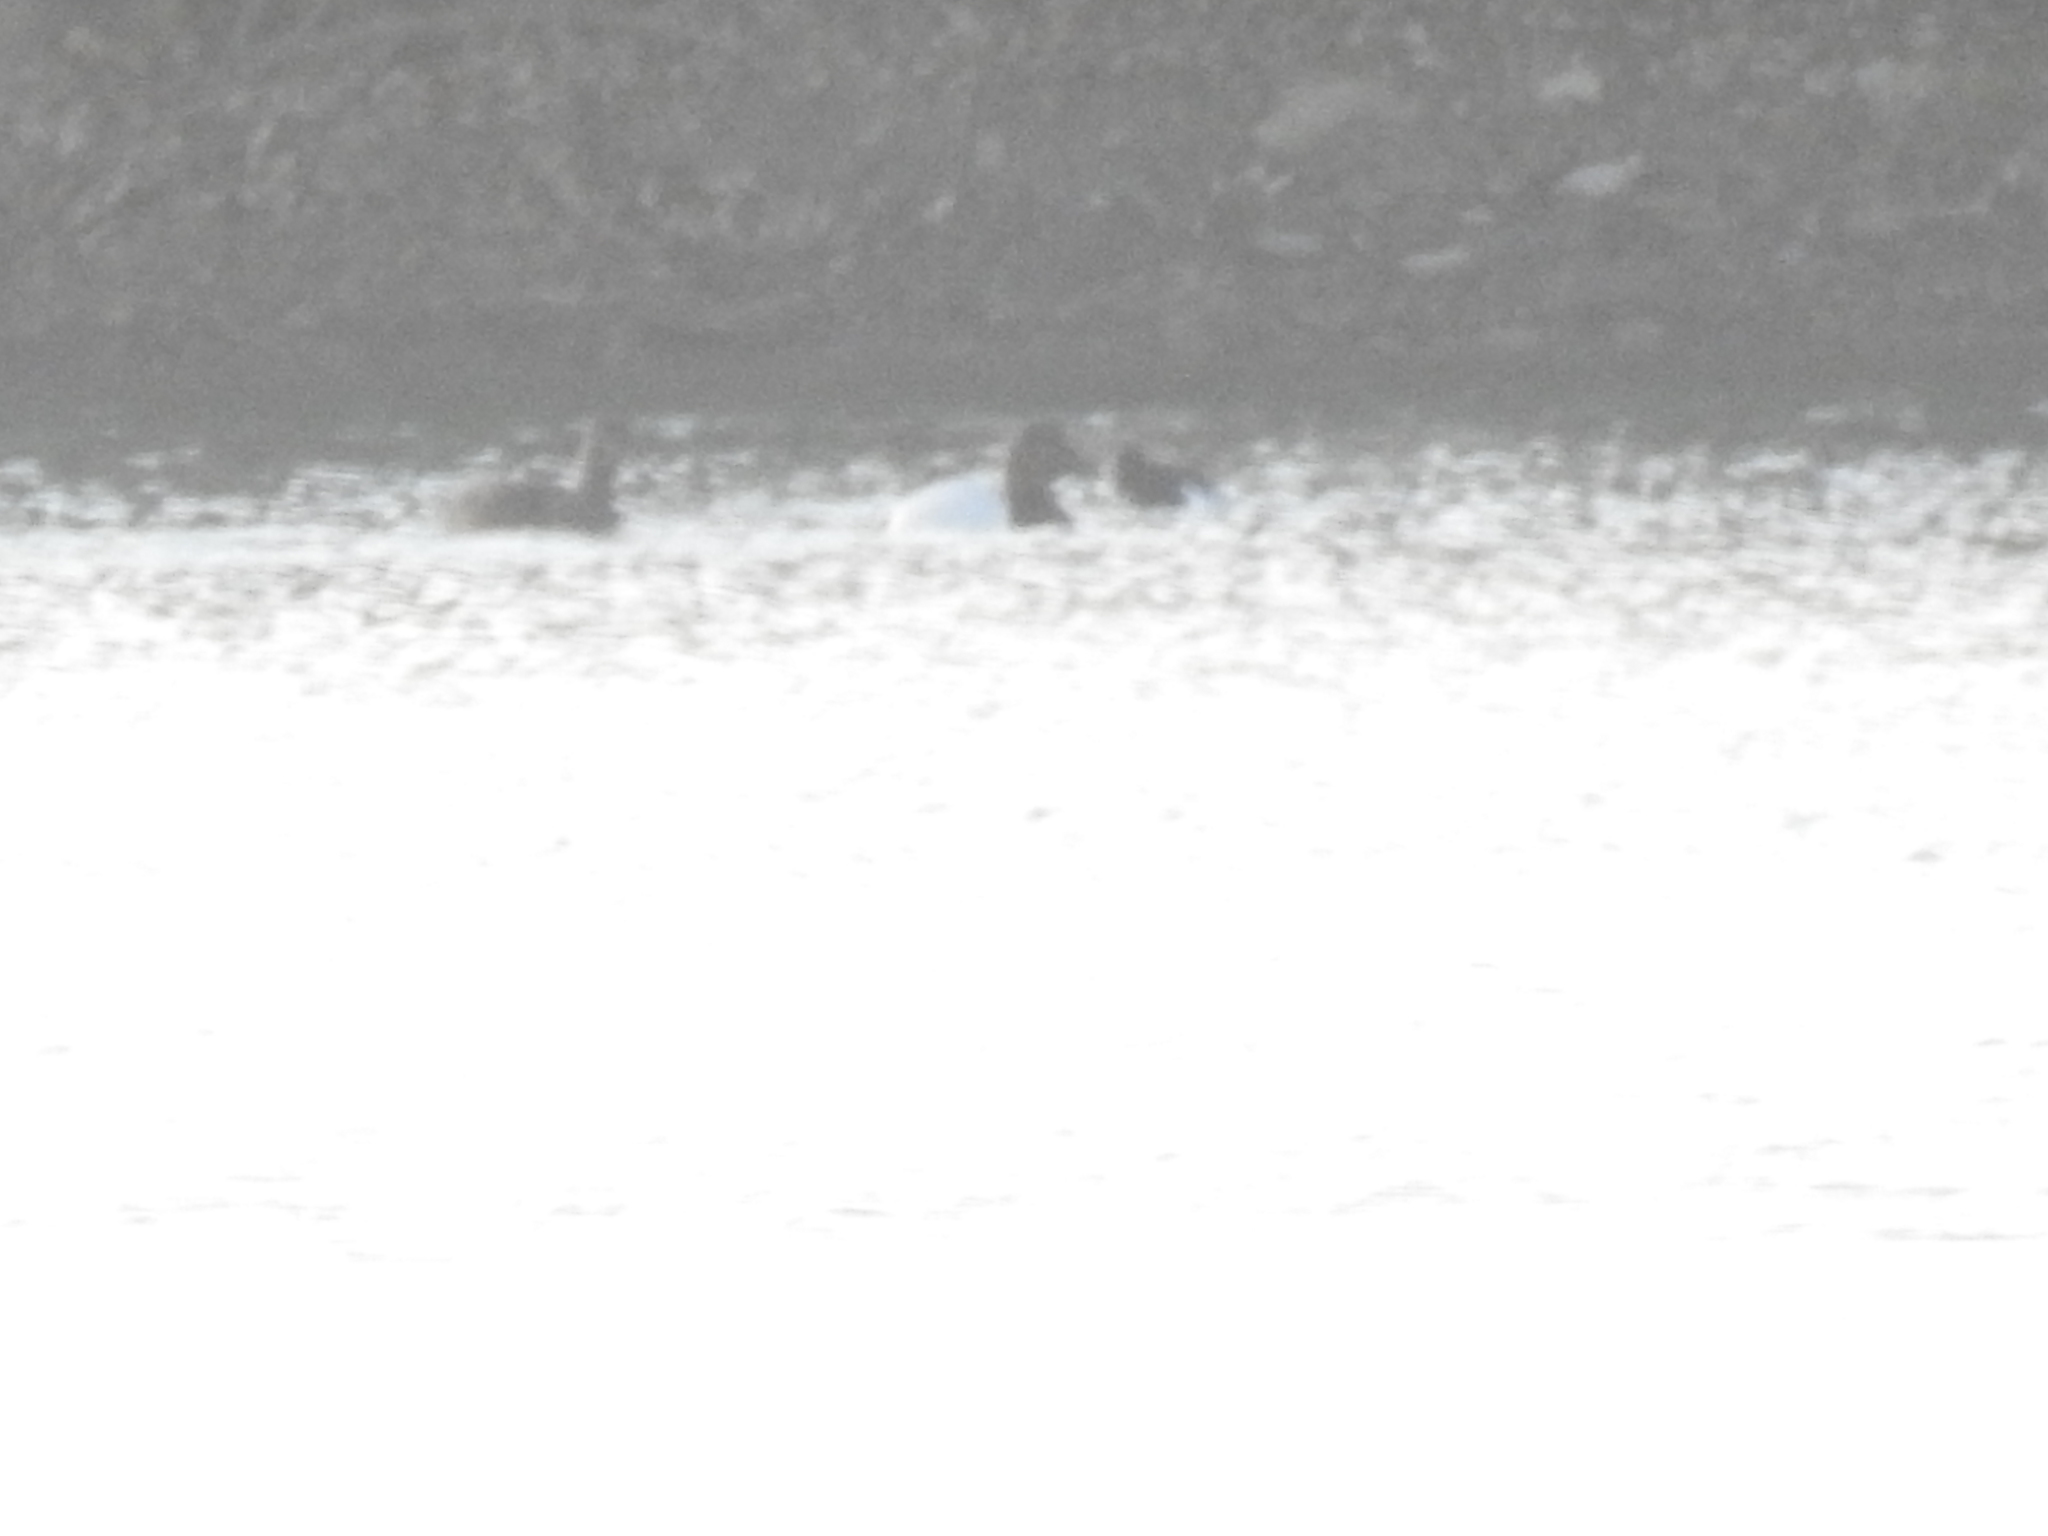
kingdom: Animalia
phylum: Chordata
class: Aves
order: Anseriformes
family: Anatidae
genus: Aythya
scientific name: Aythya valisineria
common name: Canvasback
